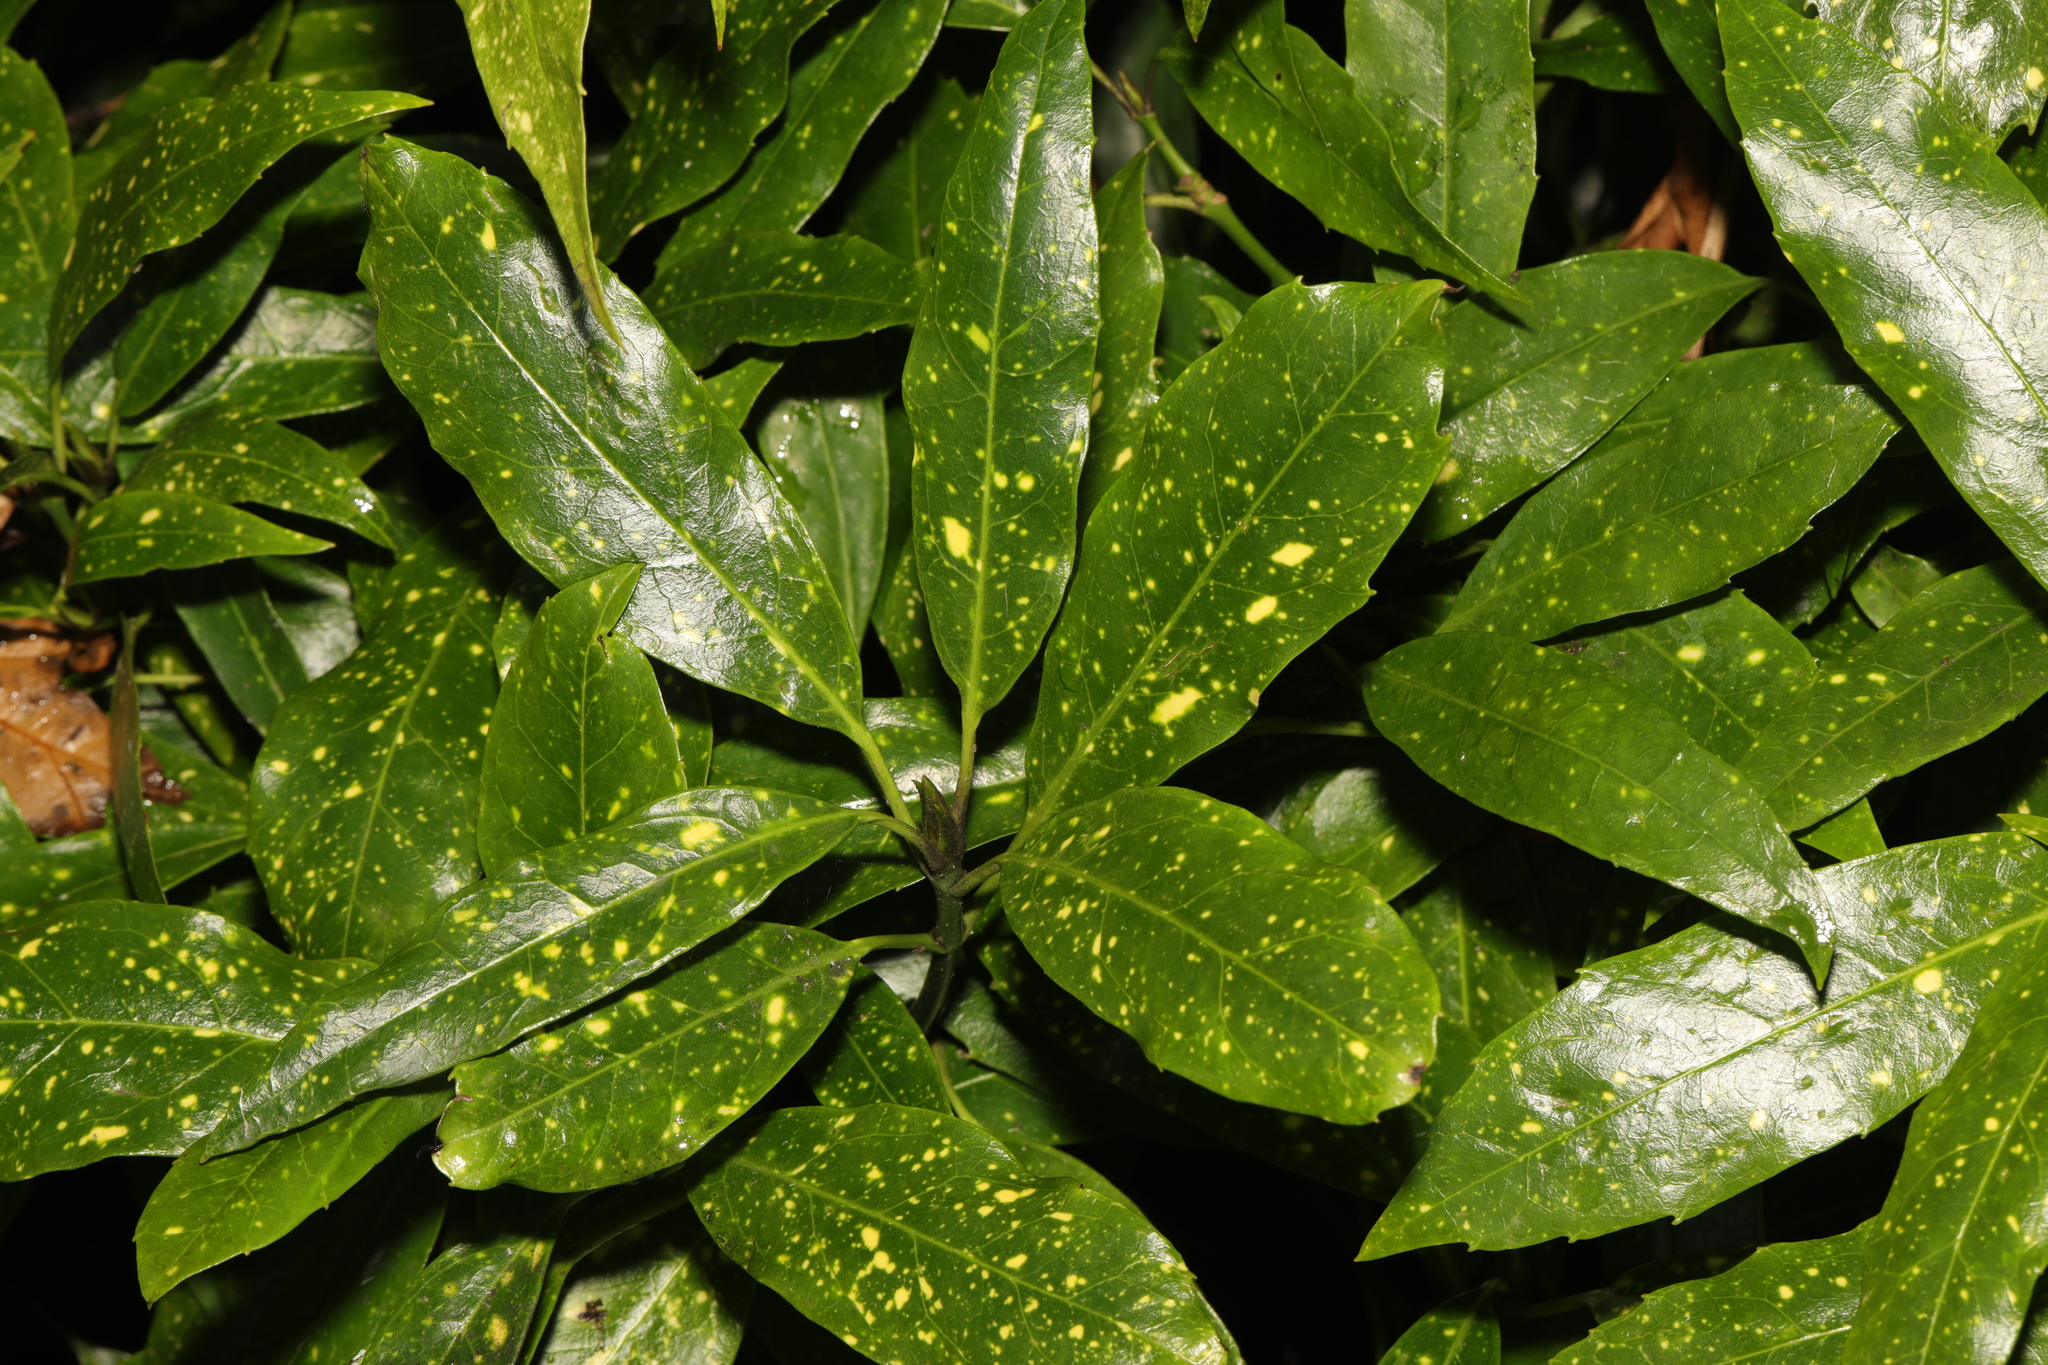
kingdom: Plantae
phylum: Tracheophyta
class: Magnoliopsida
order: Garryales
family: Garryaceae
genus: Aucuba
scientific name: Aucuba japonica
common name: Spotted-laurel
